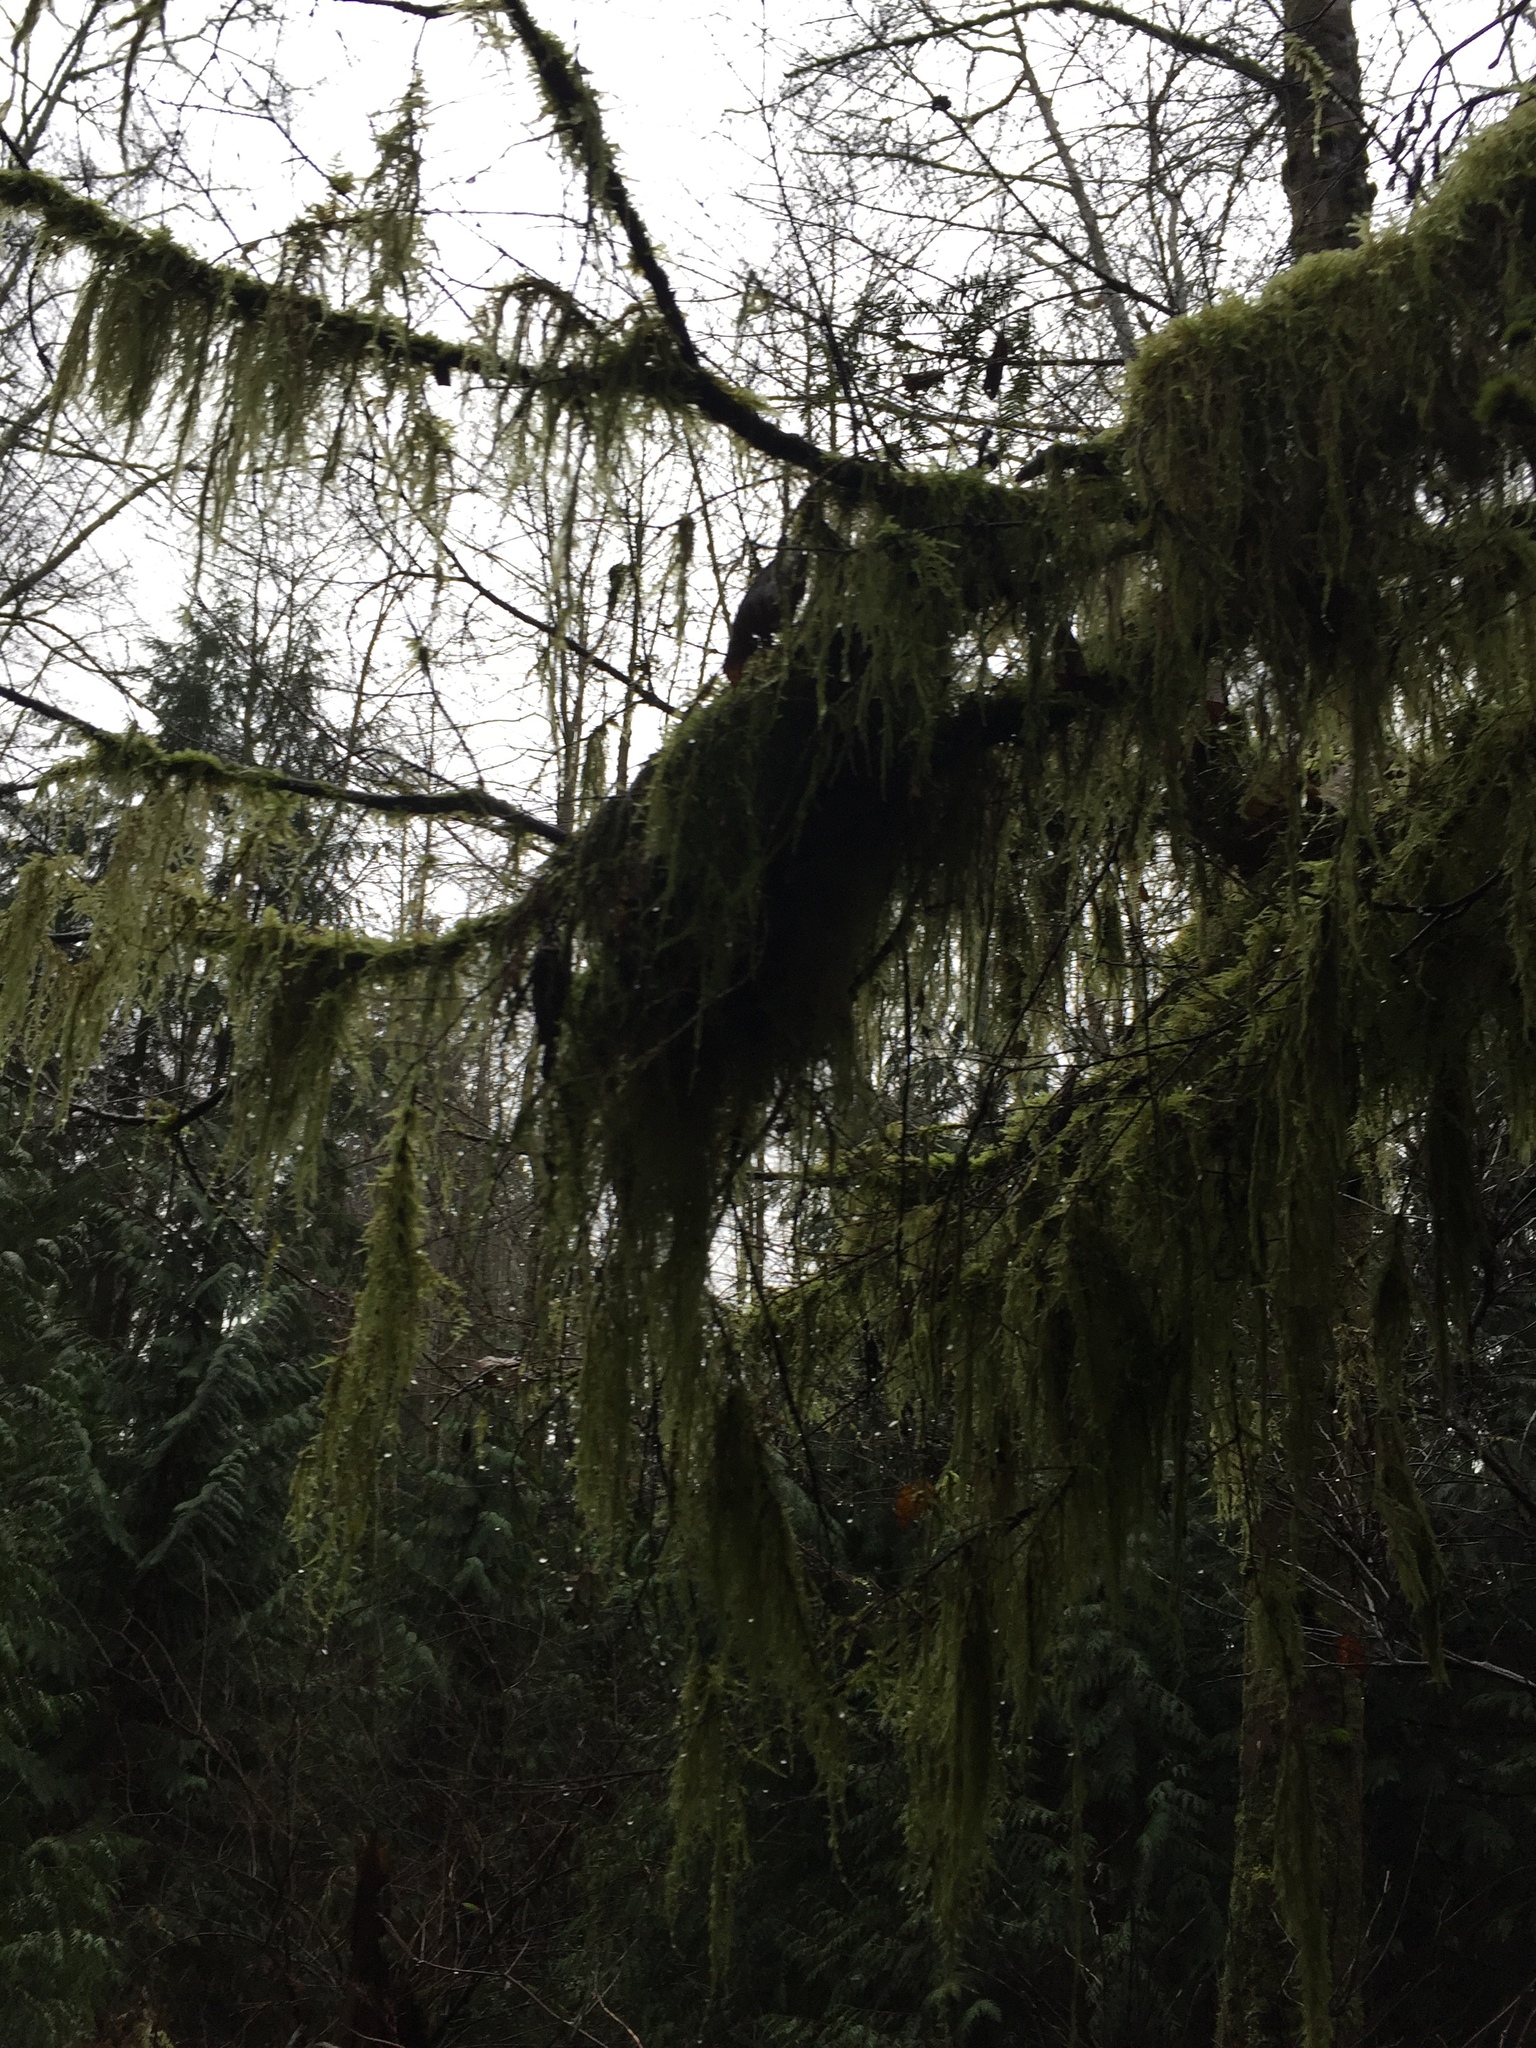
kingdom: Plantae
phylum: Bryophyta
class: Bryopsida
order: Hypnales
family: Lembophyllaceae
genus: Pseudisothecium
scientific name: Pseudisothecium stoloniferum
